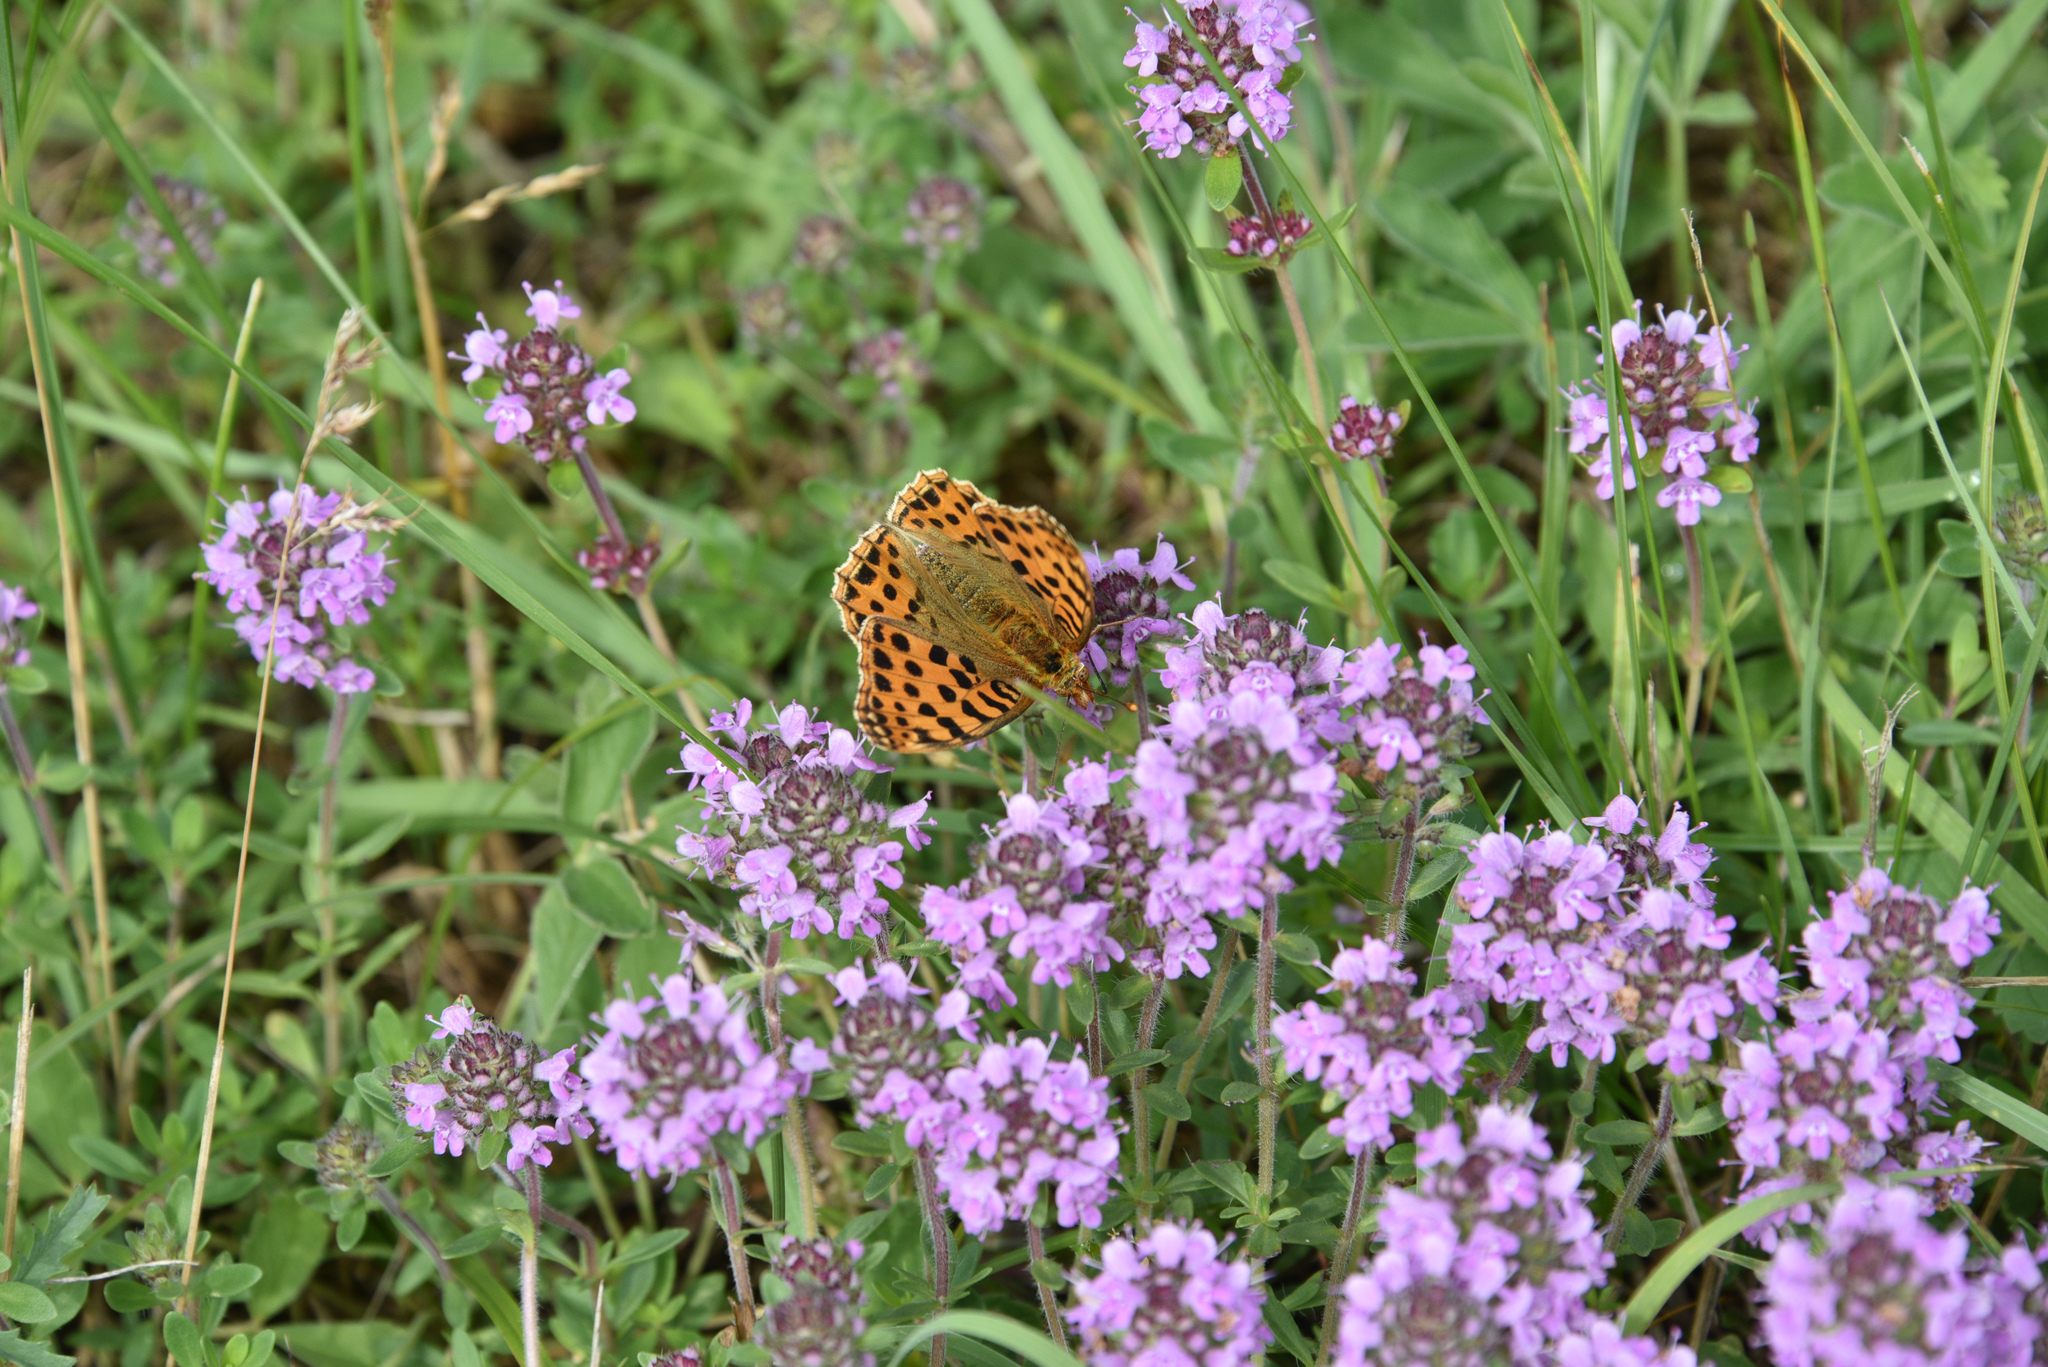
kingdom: Animalia
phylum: Arthropoda
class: Insecta
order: Lepidoptera
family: Nymphalidae
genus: Issoria
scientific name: Issoria lathonia
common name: Queen of spain fritillary
